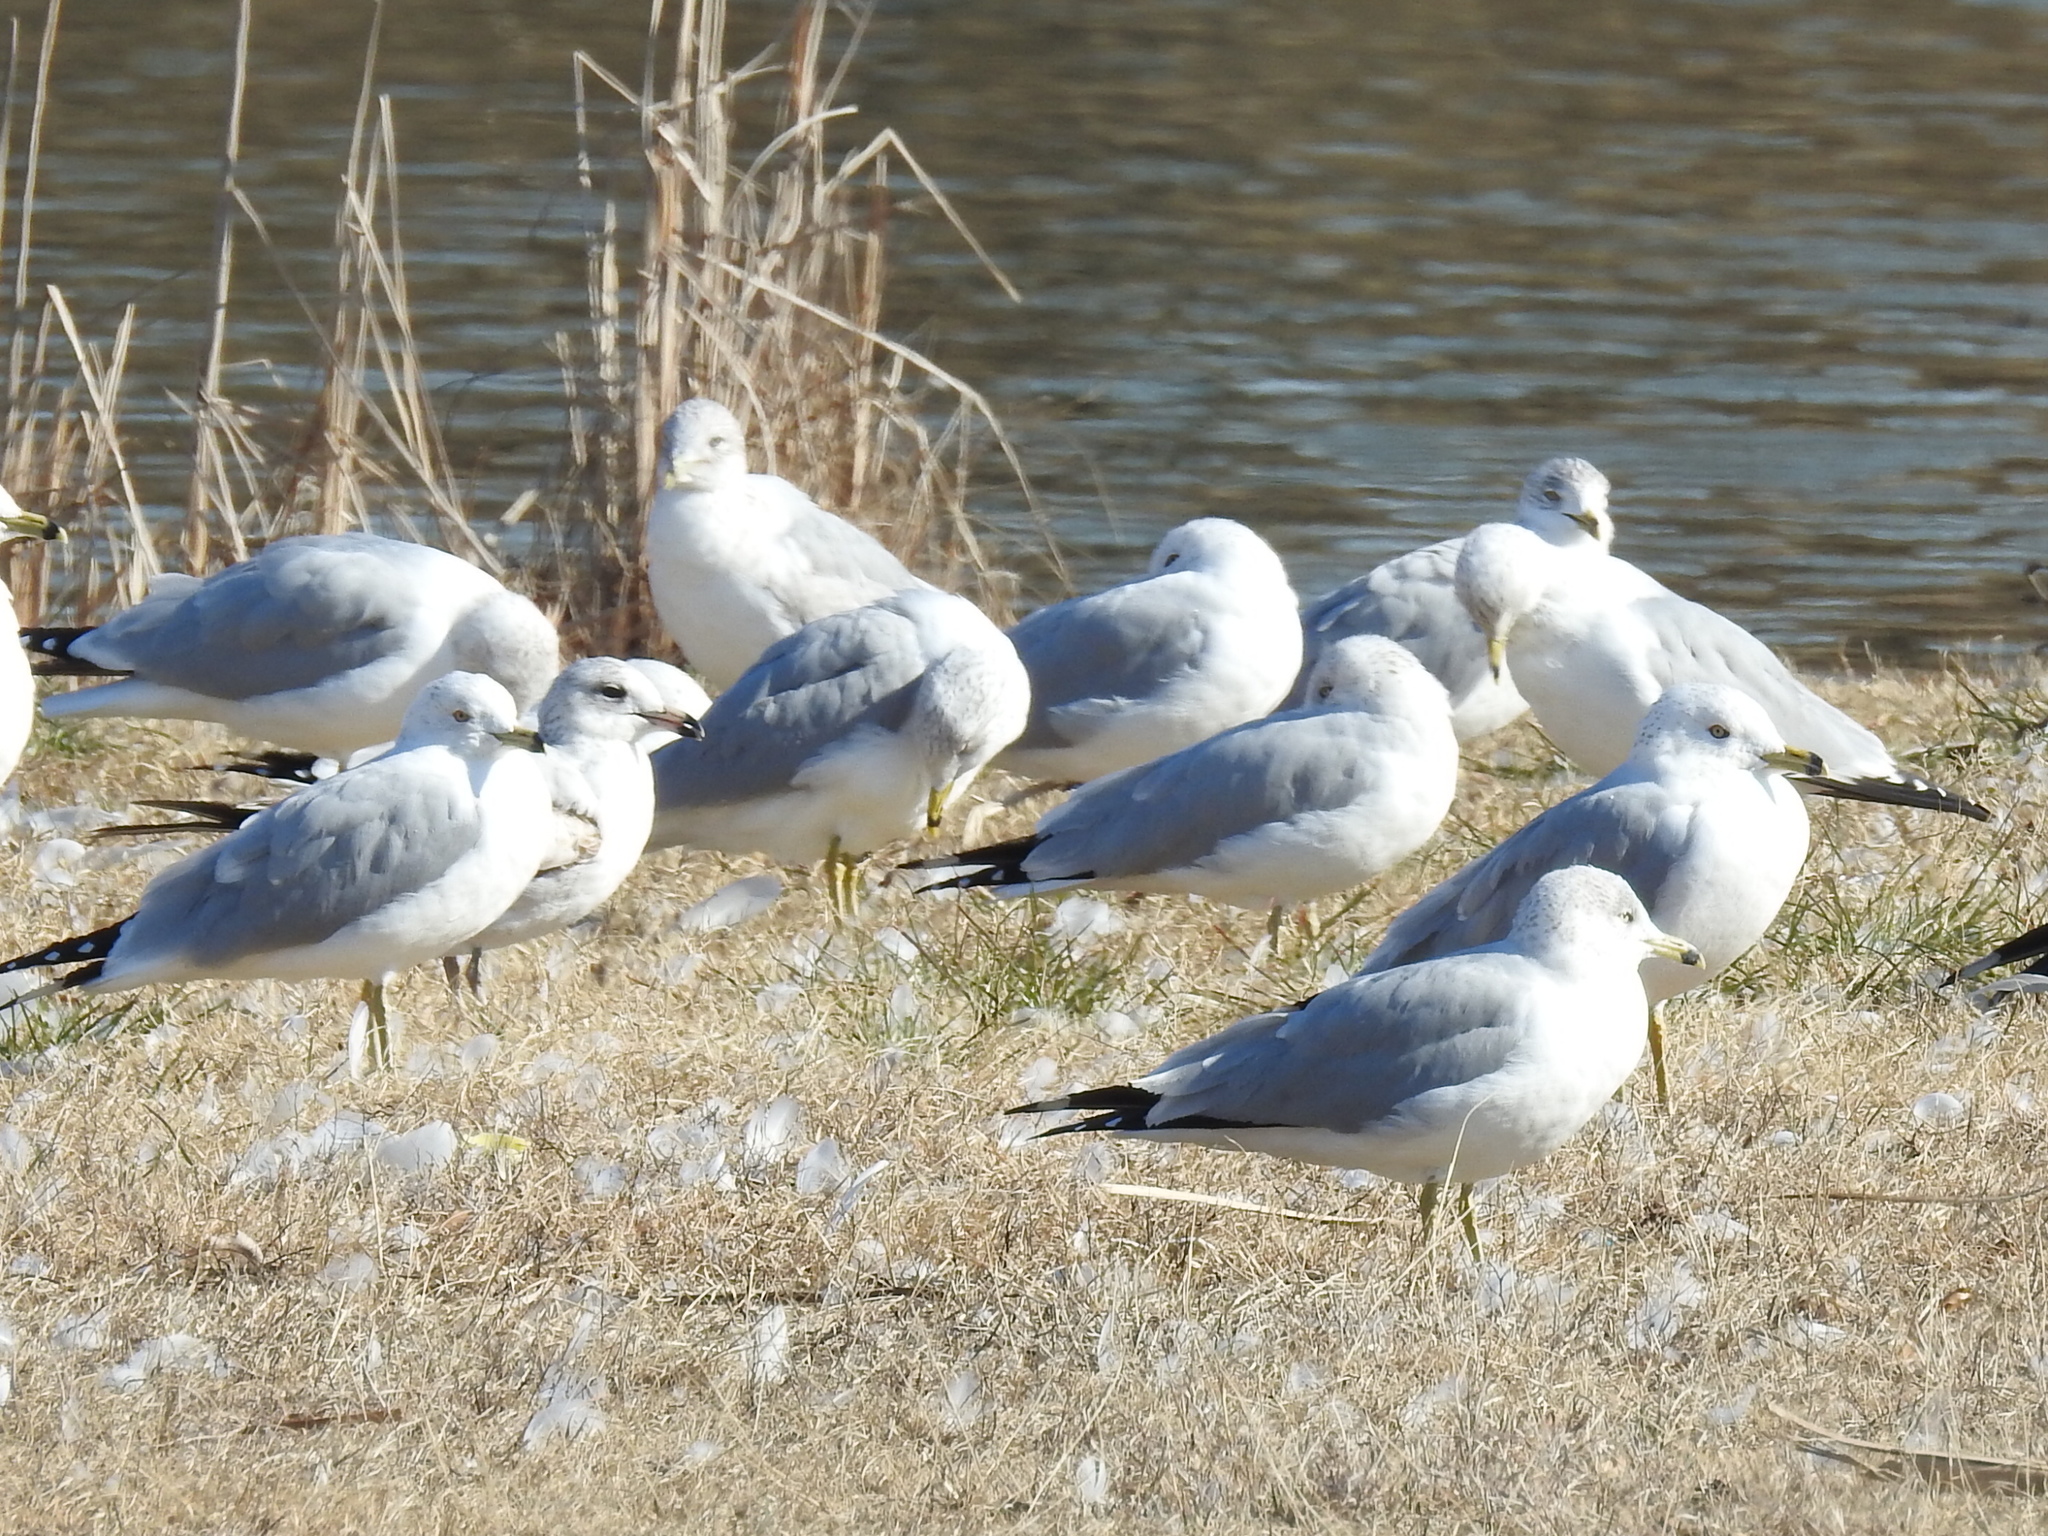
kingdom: Animalia
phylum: Chordata
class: Aves
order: Charadriiformes
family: Laridae
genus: Larus
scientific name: Larus delawarensis
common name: Ring-billed gull
